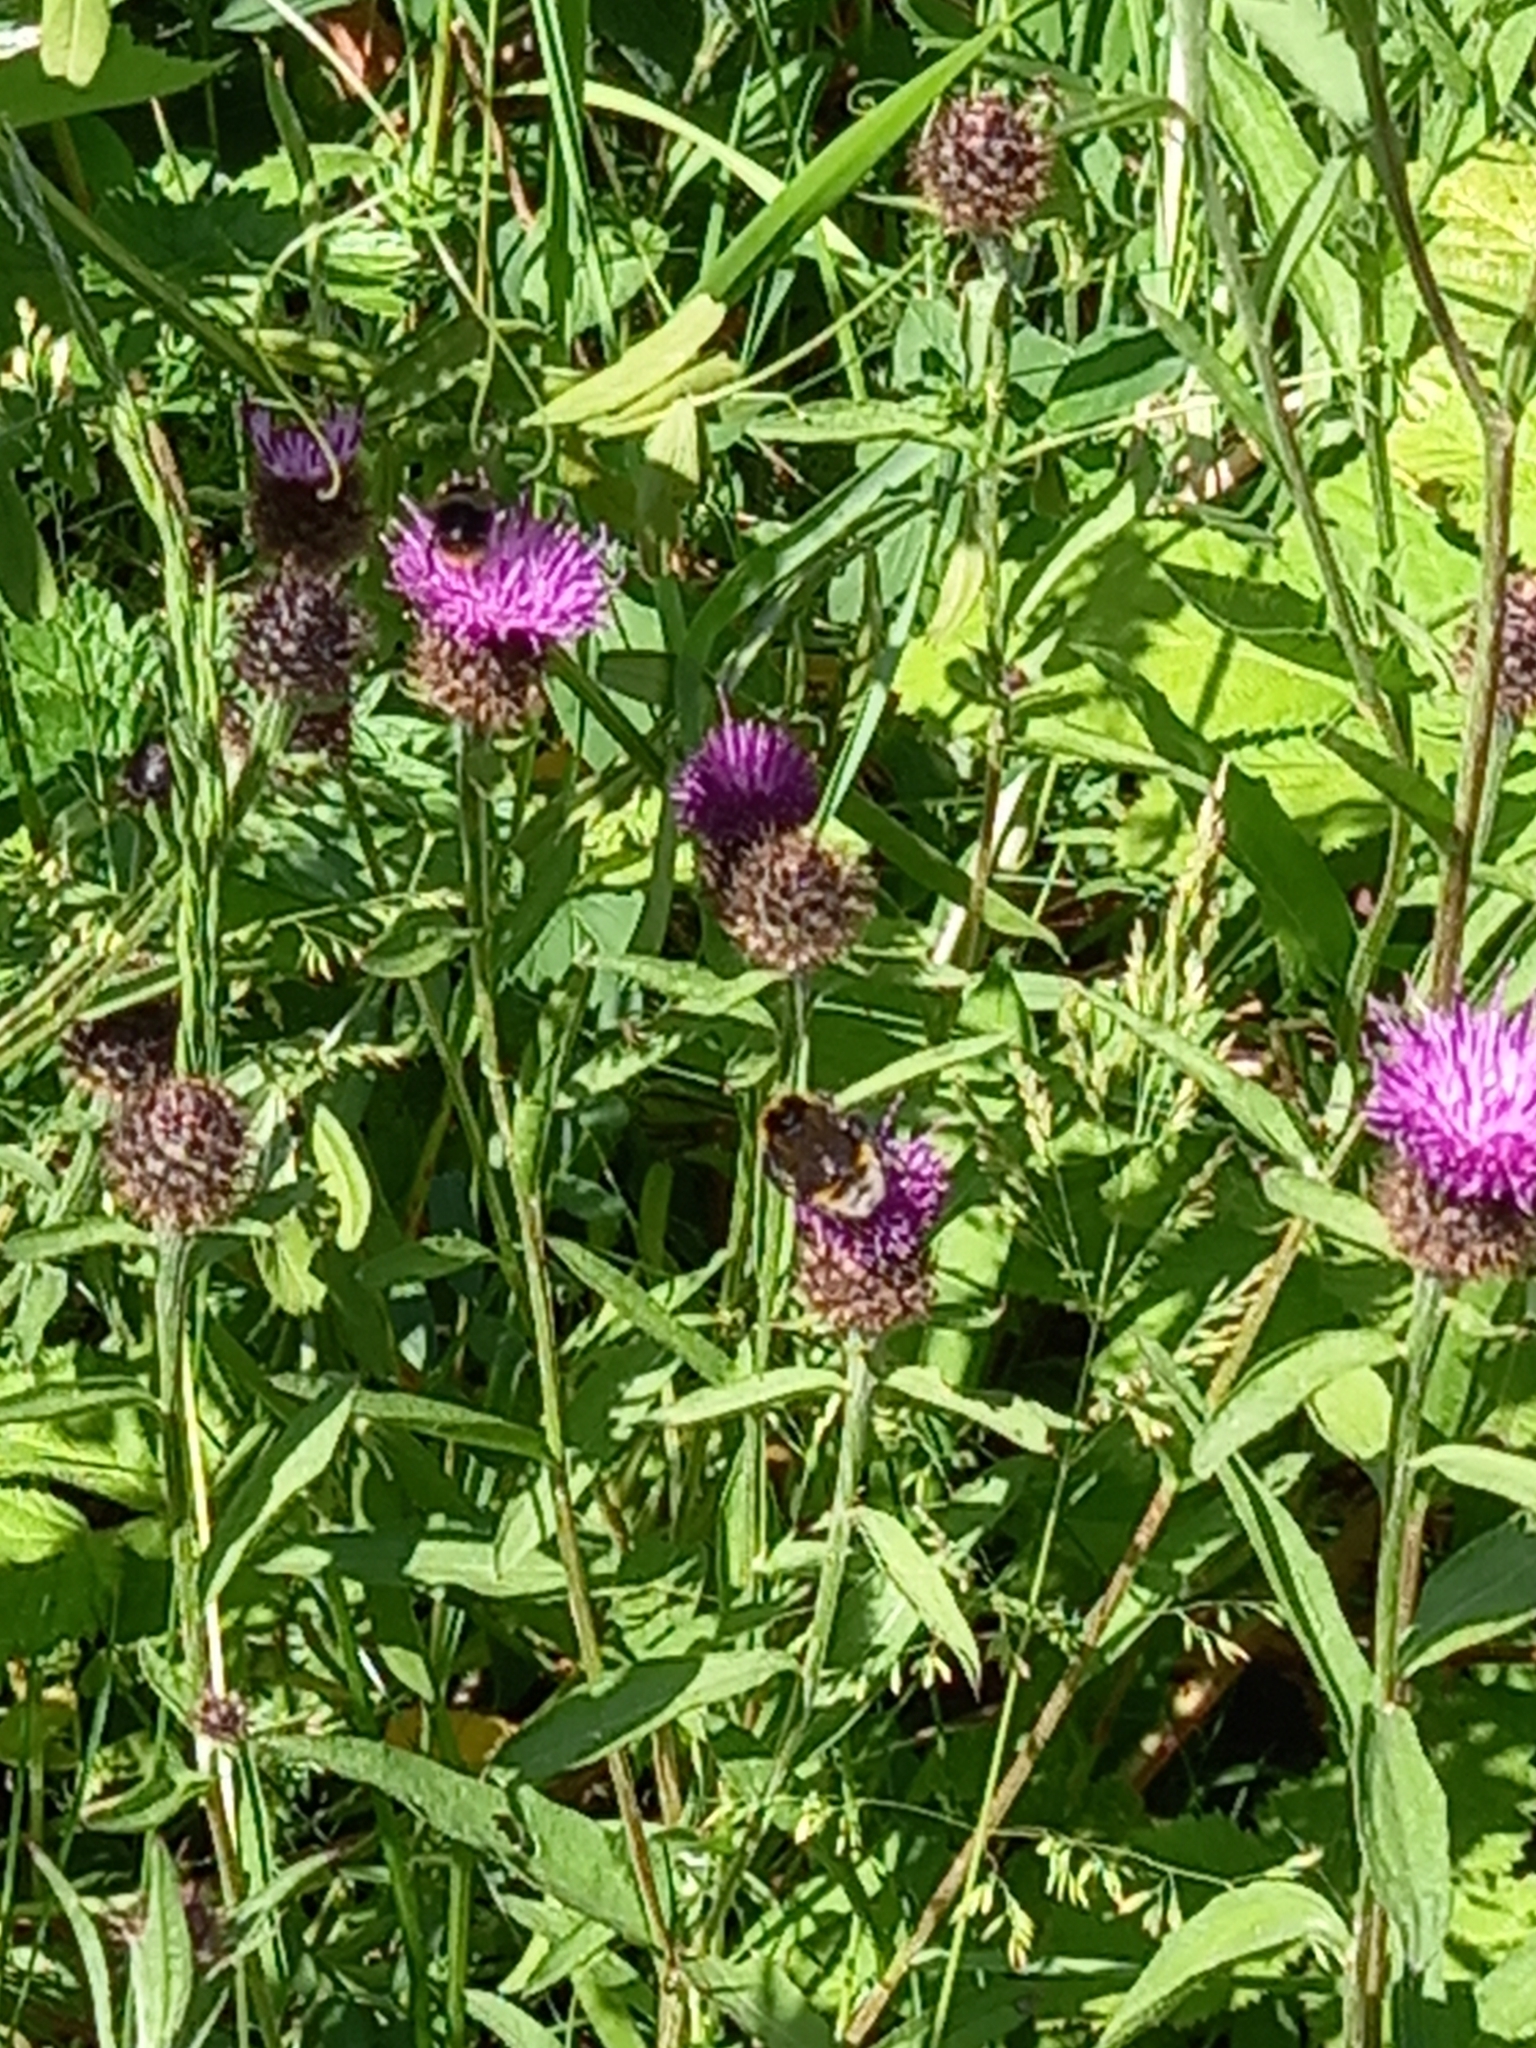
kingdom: Plantae
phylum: Tracheophyta
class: Magnoliopsida
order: Asterales
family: Asteraceae
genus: Centaurea
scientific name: Centaurea nigra
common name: Lesser knapweed
